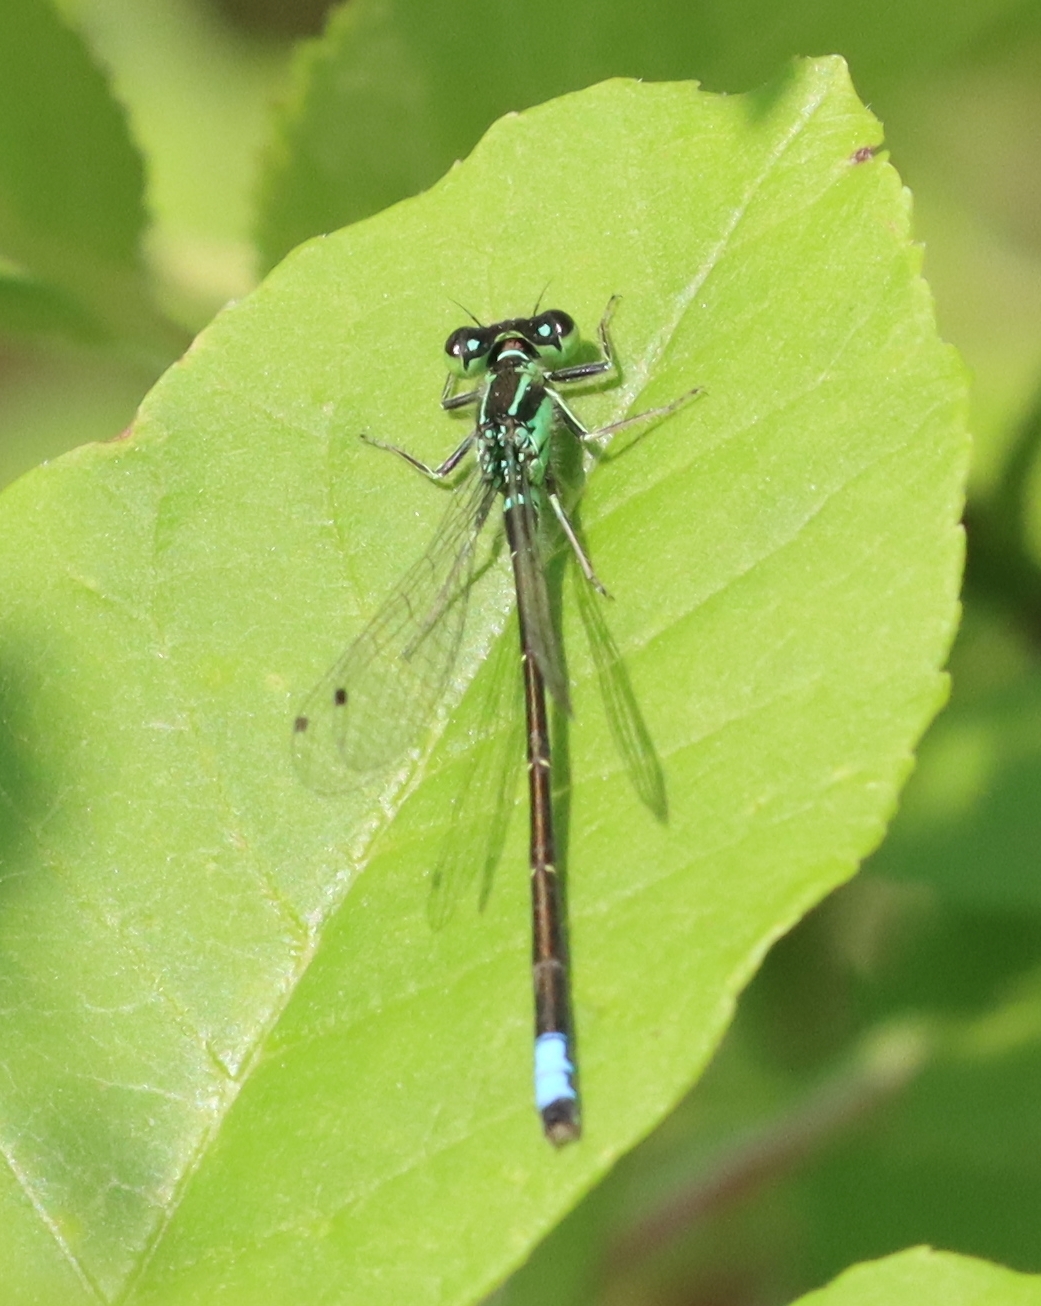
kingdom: Animalia
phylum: Arthropoda
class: Insecta
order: Odonata
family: Coenagrionidae
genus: Ischnura
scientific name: Ischnura verticalis
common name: Eastern forktail
